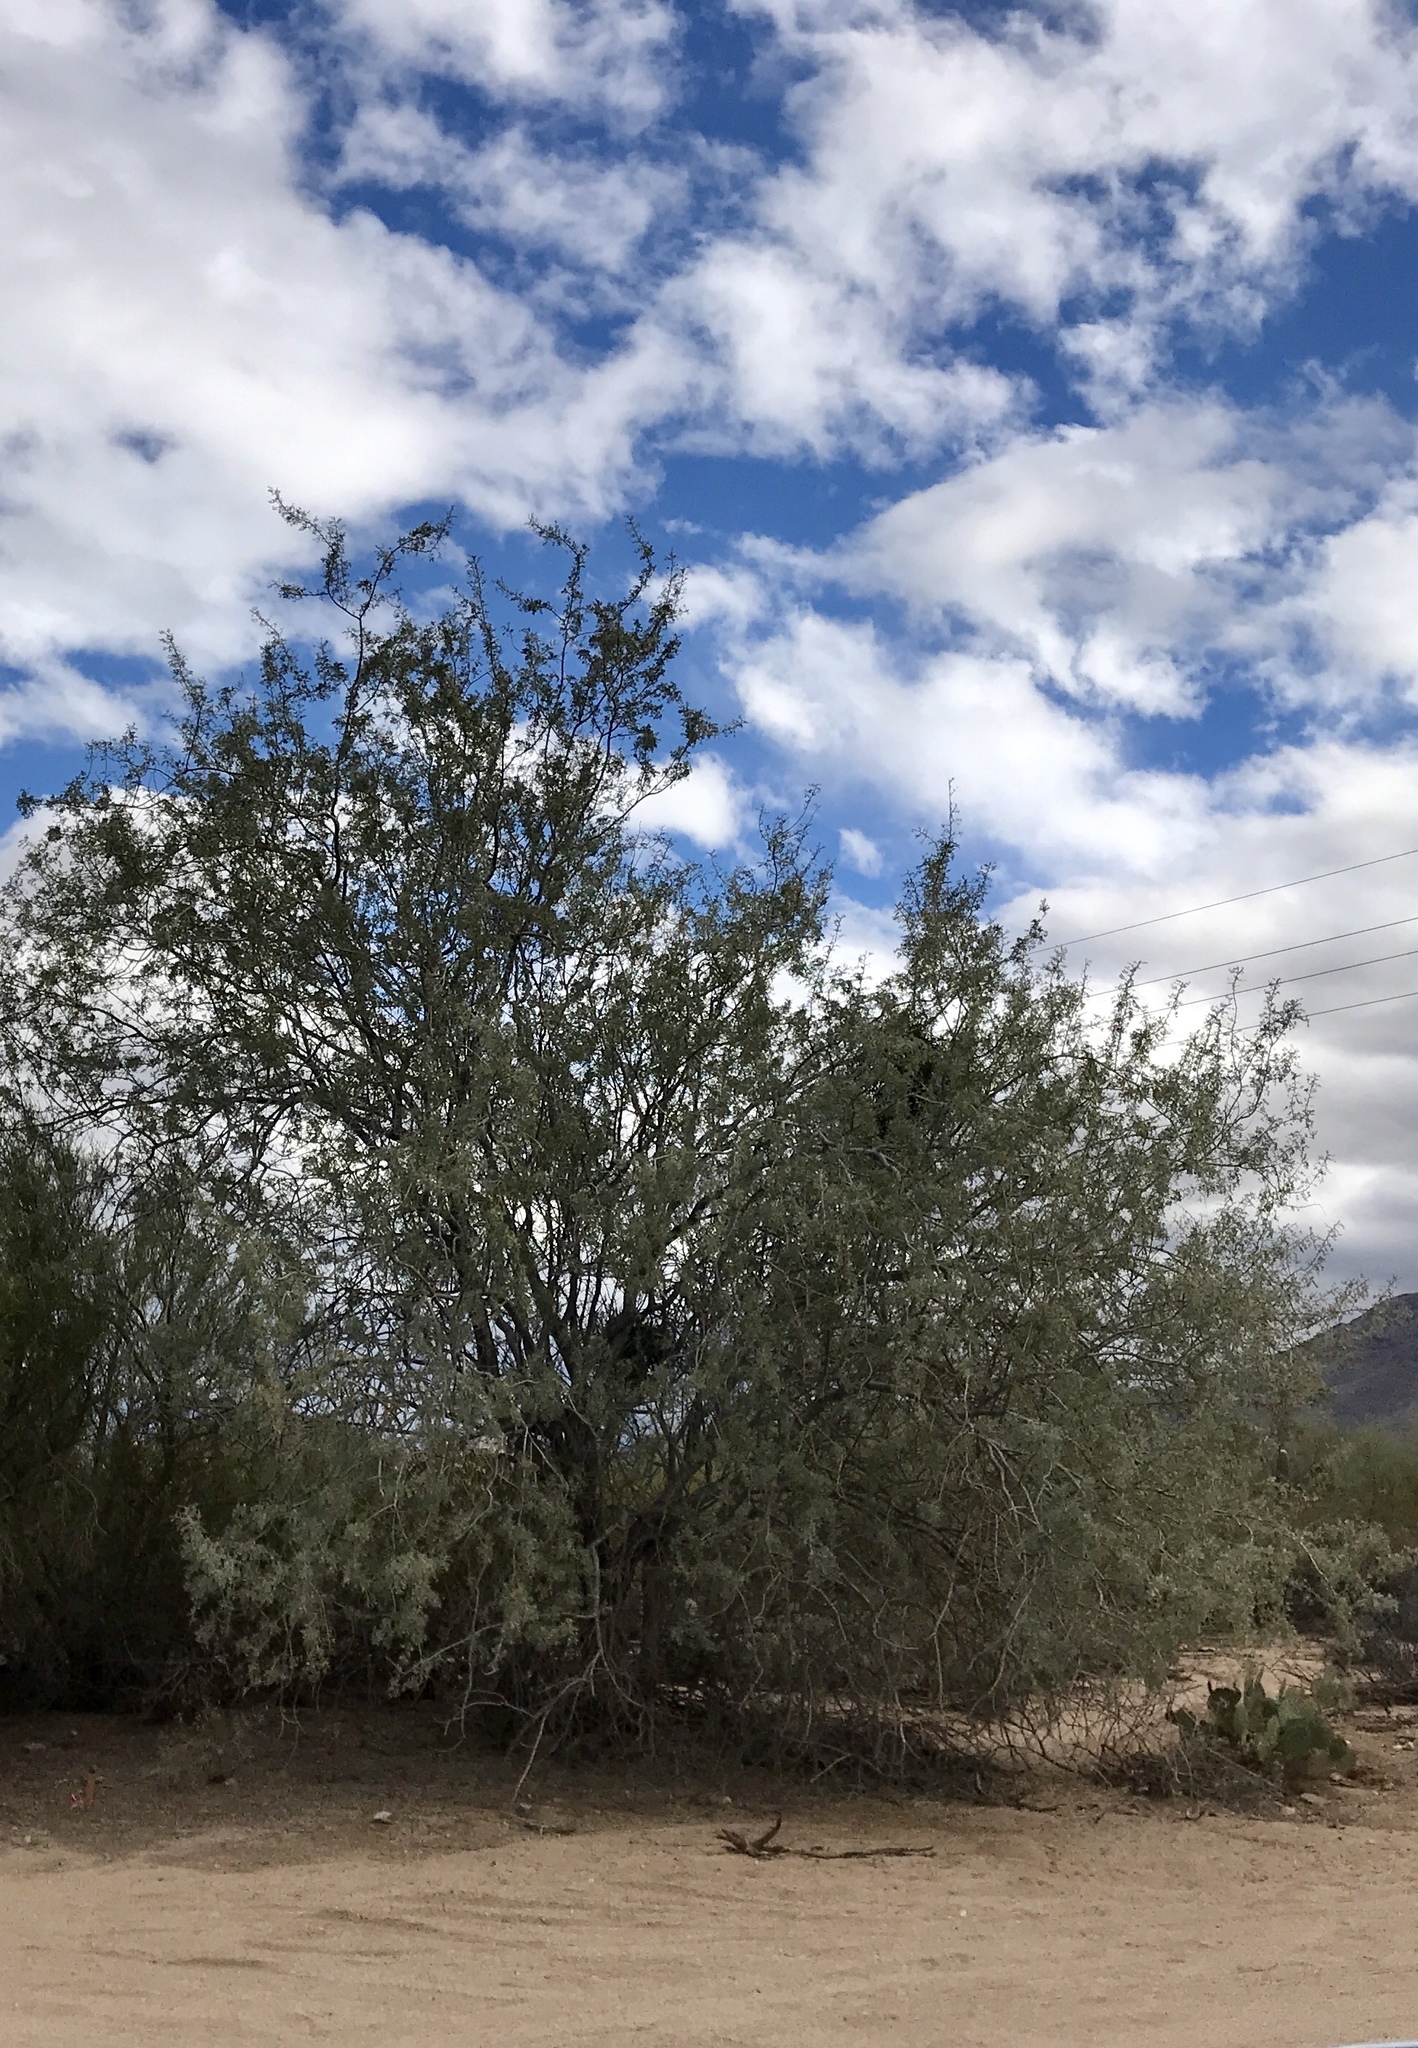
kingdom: Plantae
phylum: Tracheophyta
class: Magnoliopsida
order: Fabales
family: Fabaceae
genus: Olneya
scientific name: Olneya tesota
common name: Desert ironwood
